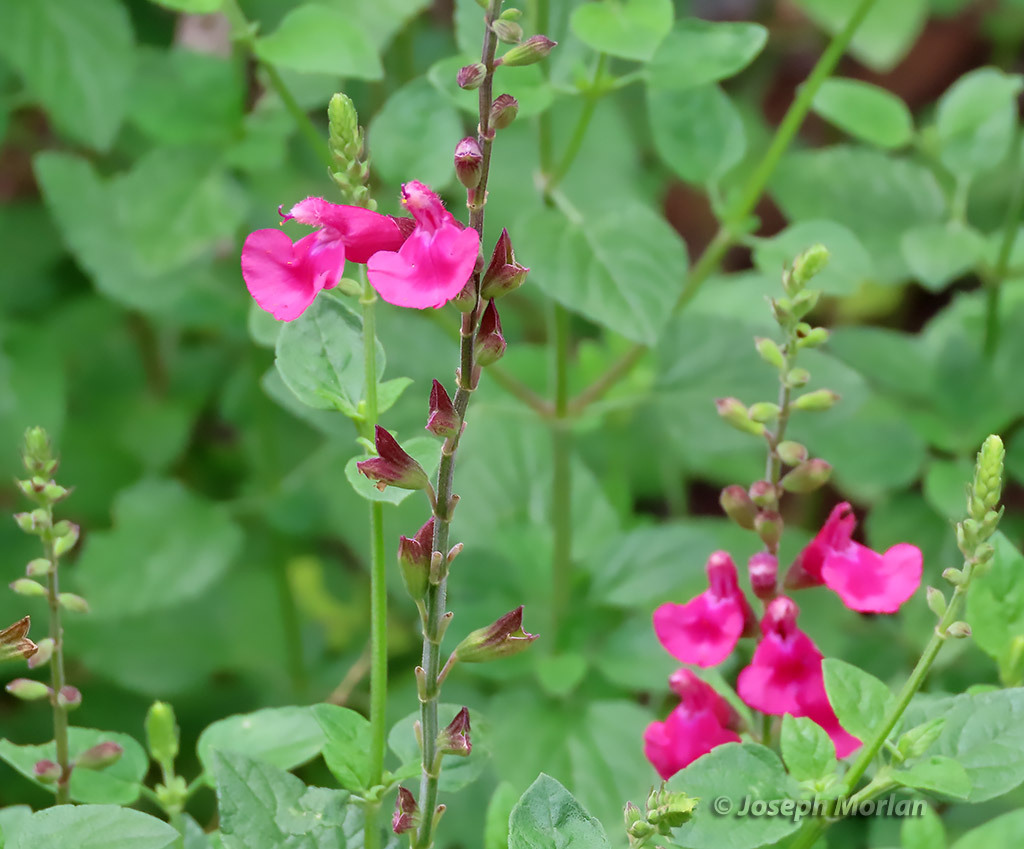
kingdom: Plantae
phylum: Tracheophyta
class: Magnoliopsida
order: Lamiales
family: Lamiaceae
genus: Salvia
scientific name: Salvia microphylla
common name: Baby sage
